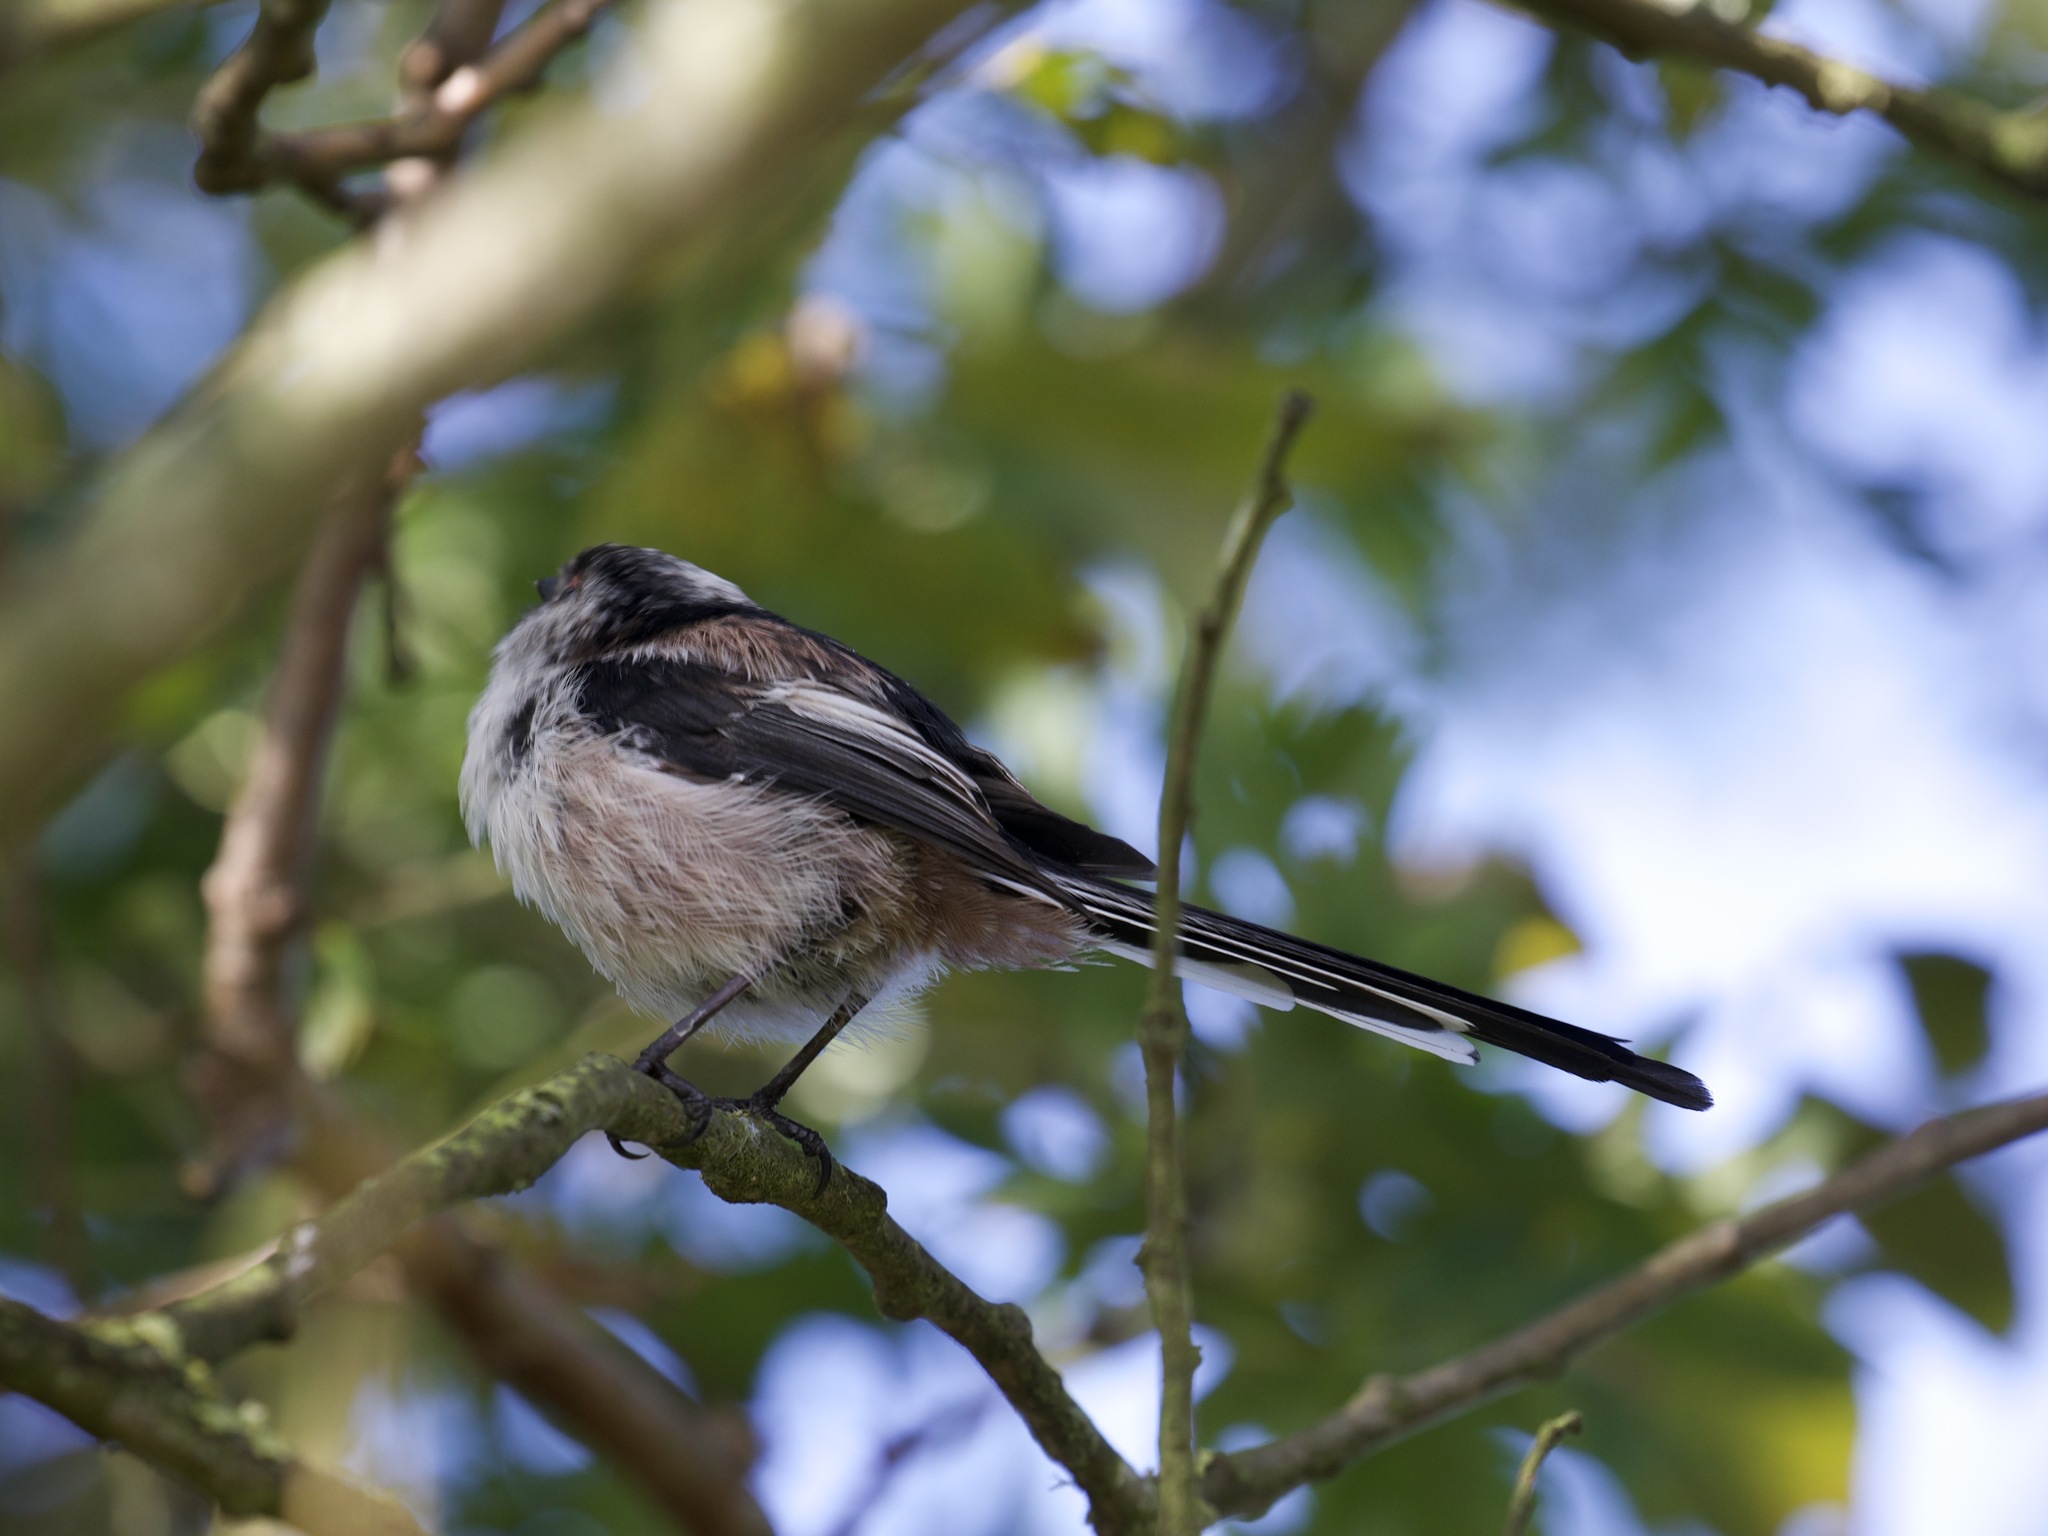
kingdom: Animalia
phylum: Chordata
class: Aves
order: Passeriformes
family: Aegithalidae
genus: Aegithalos
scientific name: Aegithalos caudatus
